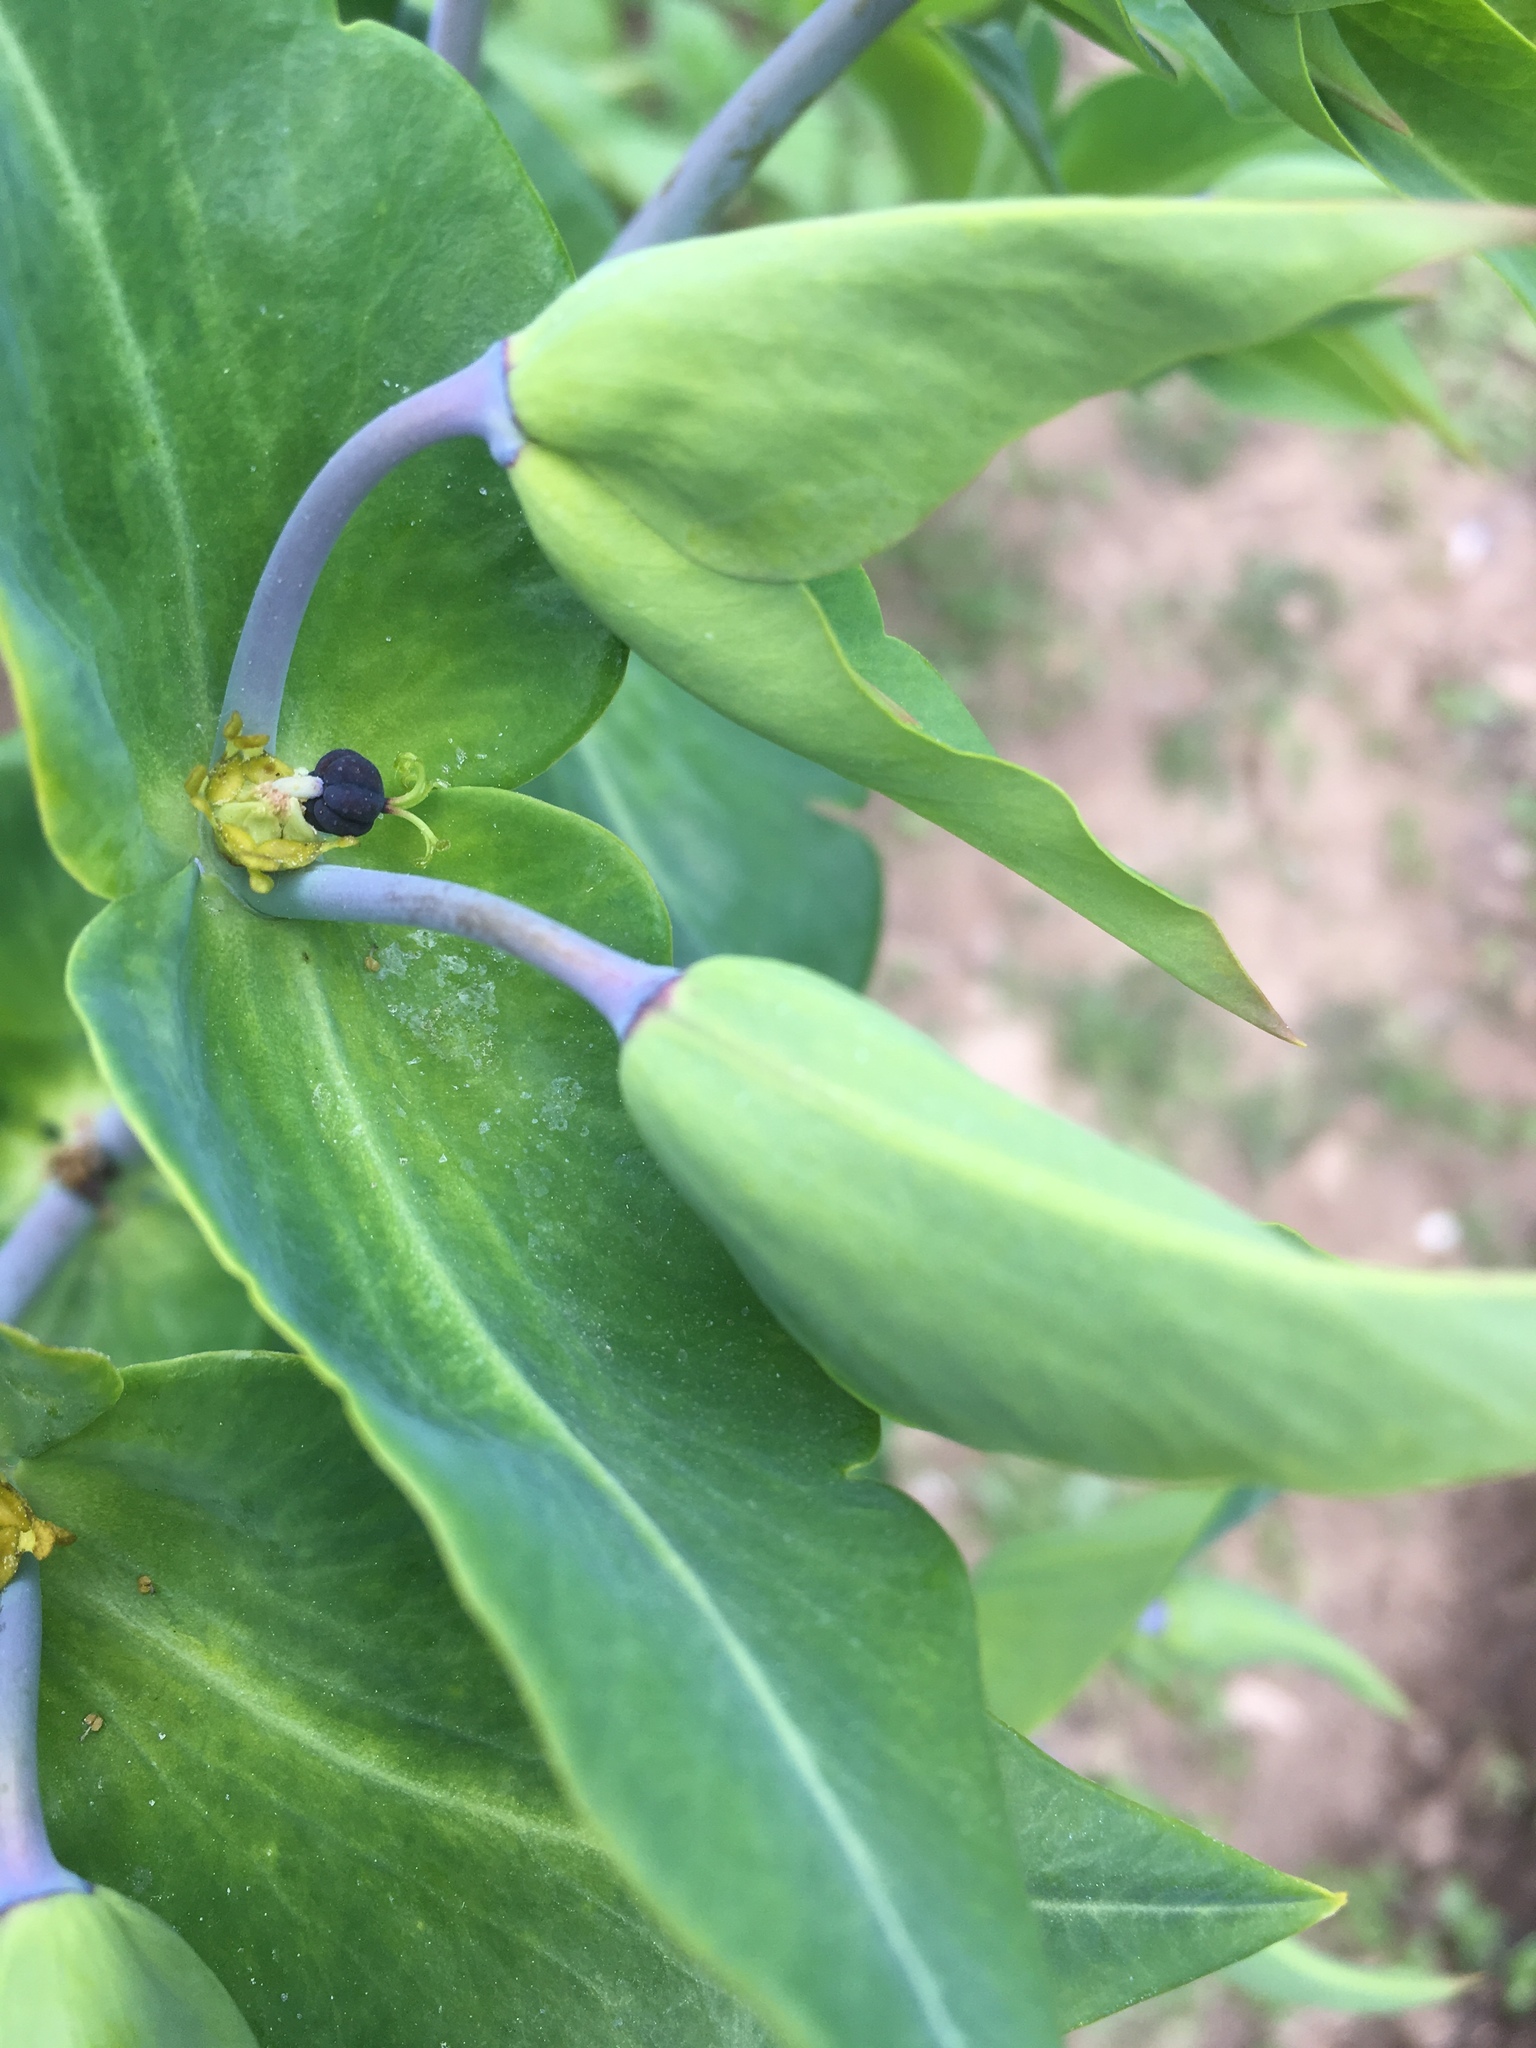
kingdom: Plantae
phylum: Tracheophyta
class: Magnoliopsida
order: Malpighiales
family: Euphorbiaceae
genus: Euphorbia
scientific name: Euphorbia lathyris
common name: Caper spurge
